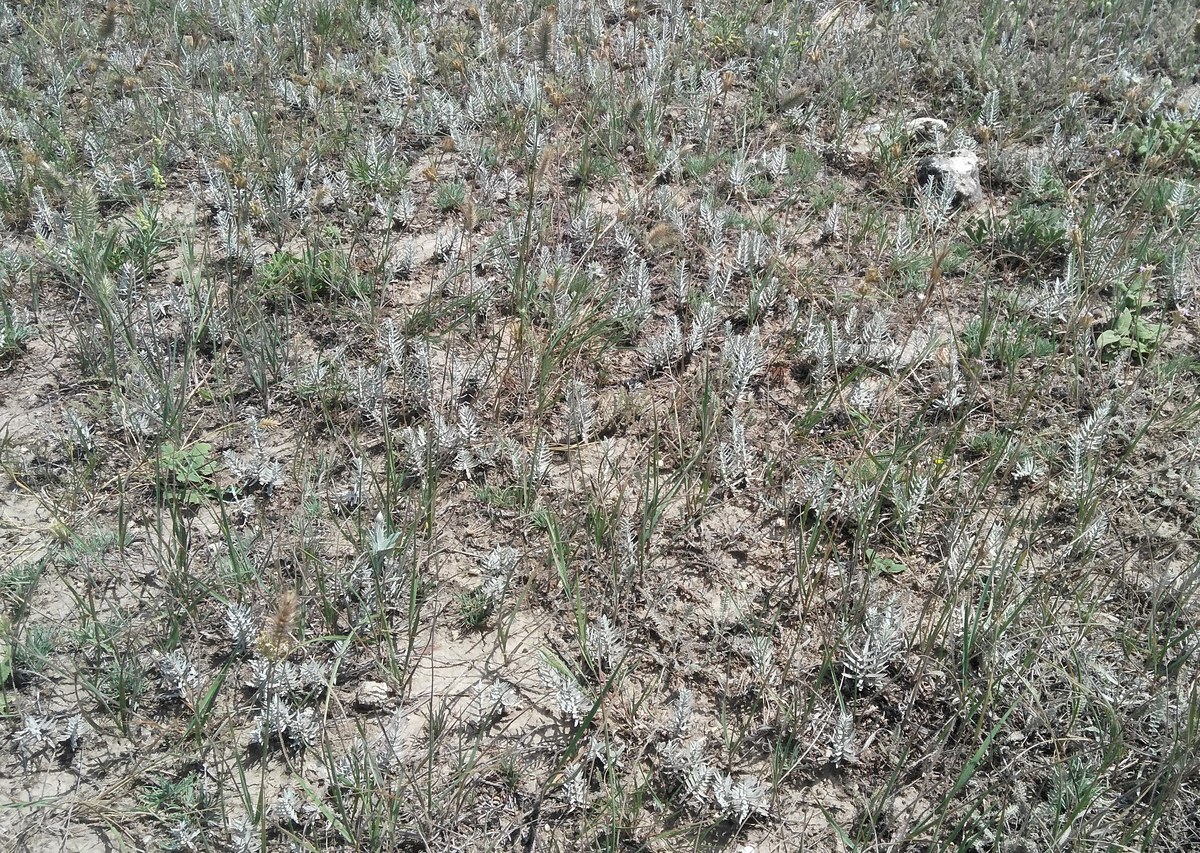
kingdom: Plantae
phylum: Tracheophyta
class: Magnoliopsida
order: Lamiales
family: Orobanchaceae
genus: Cymbaria
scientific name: Cymbaria borysthenica
